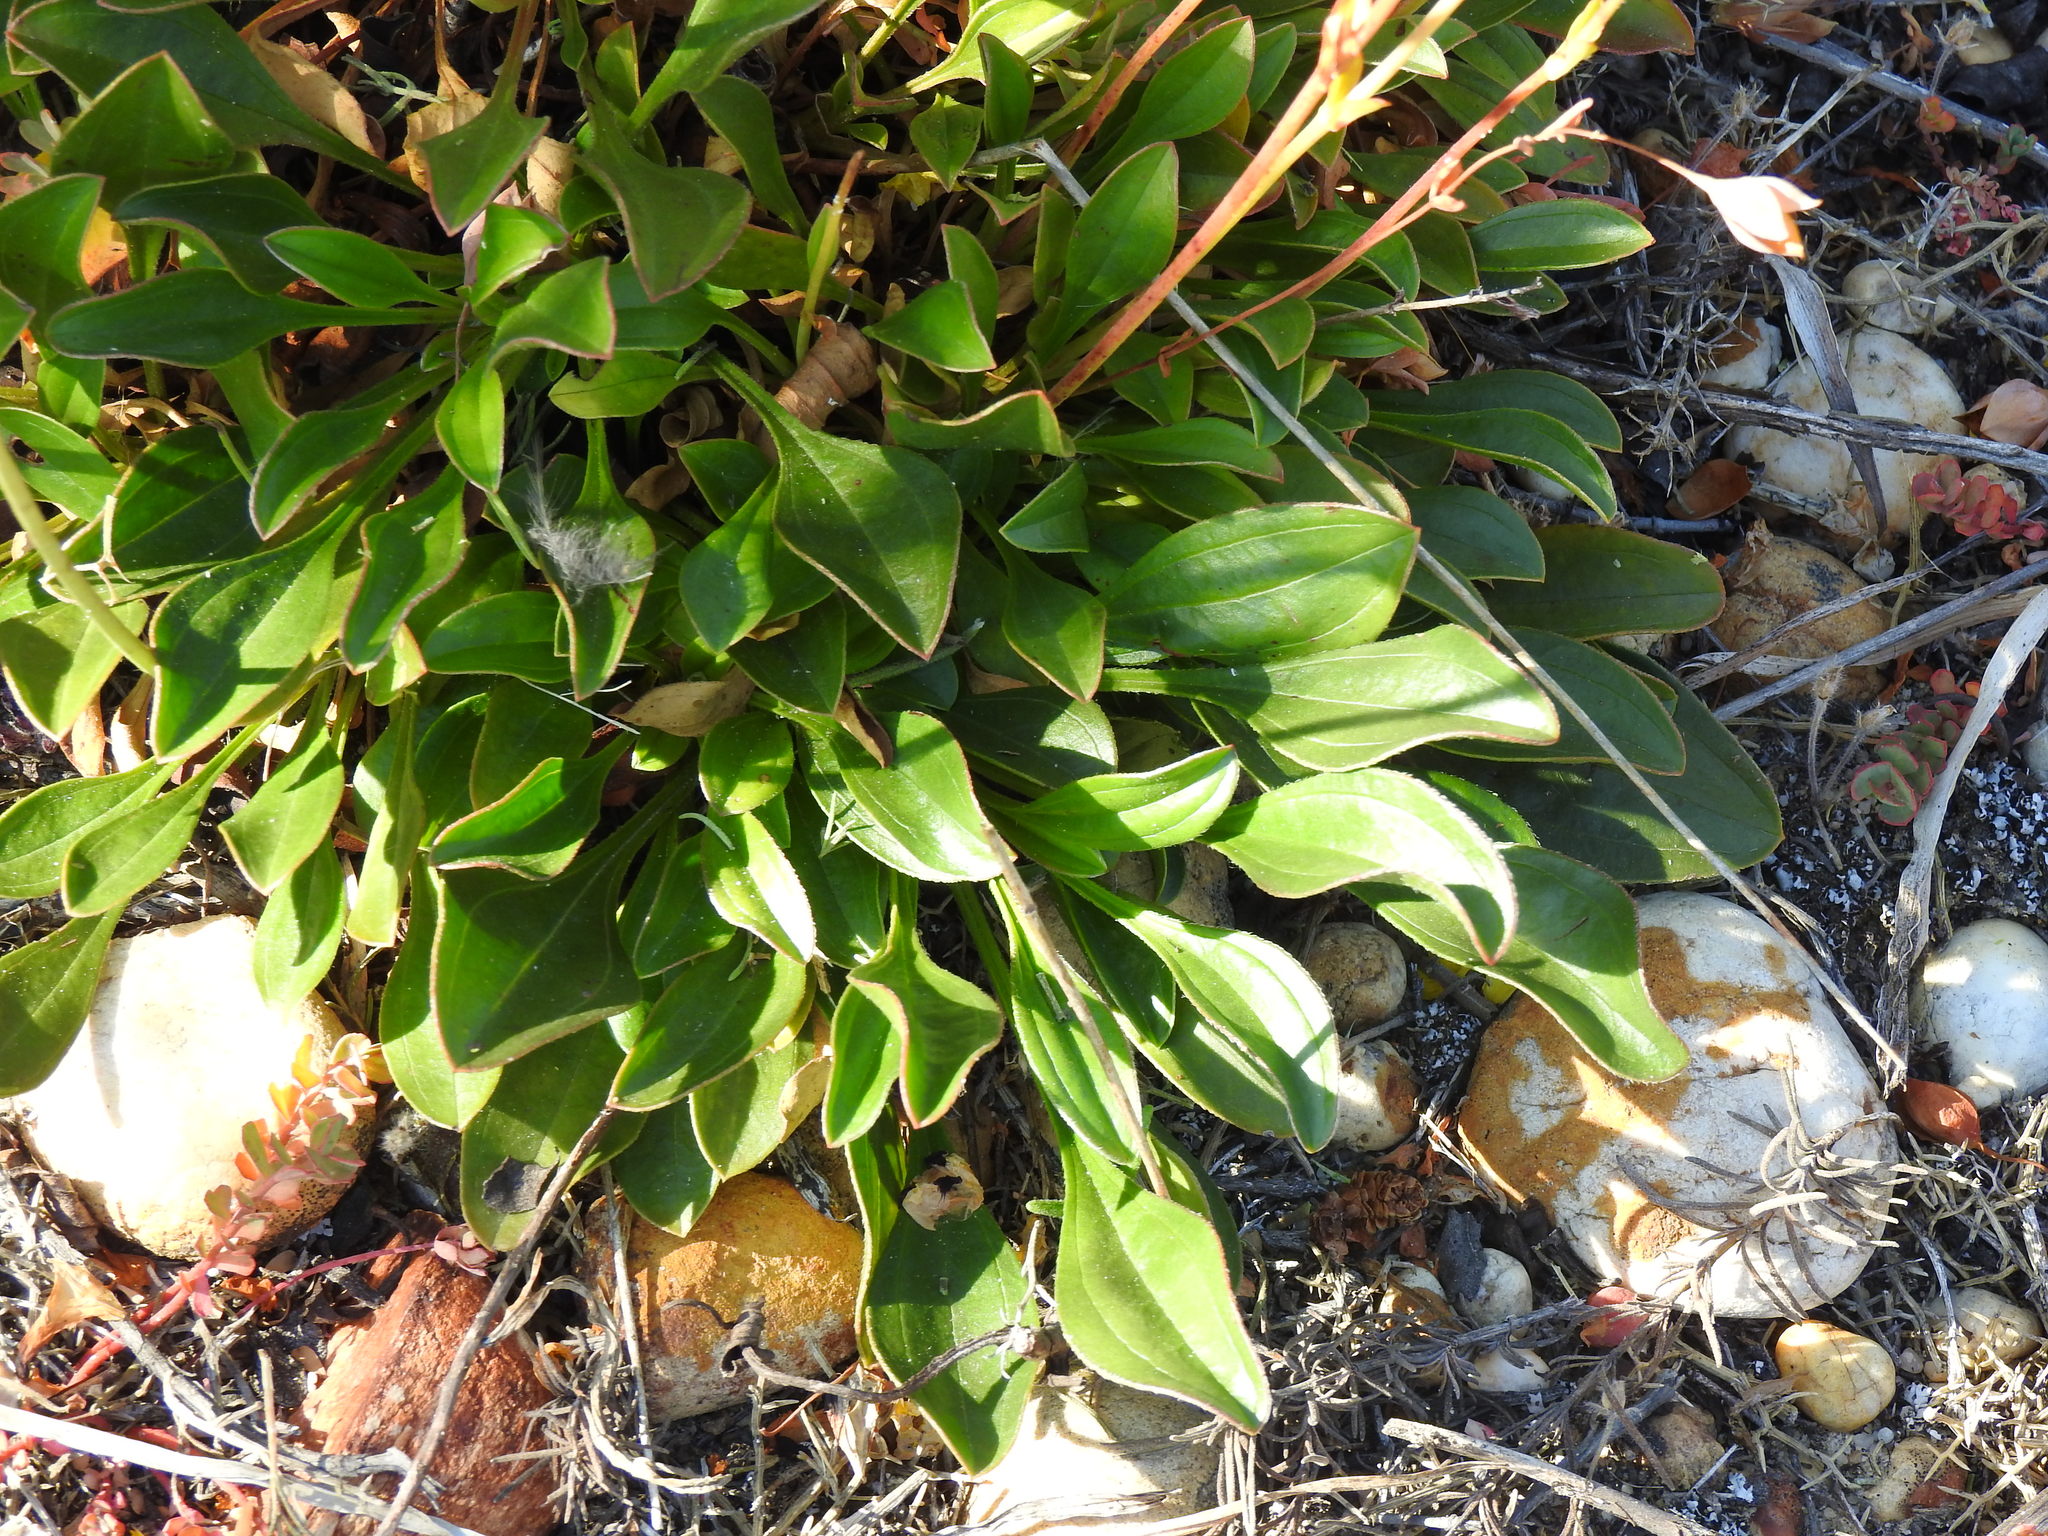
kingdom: Plantae
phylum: Tracheophyta
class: Magnoliopsida
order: Malvales
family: Cistaceae
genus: Tuberaria
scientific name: Tuberaria globulariifolia
